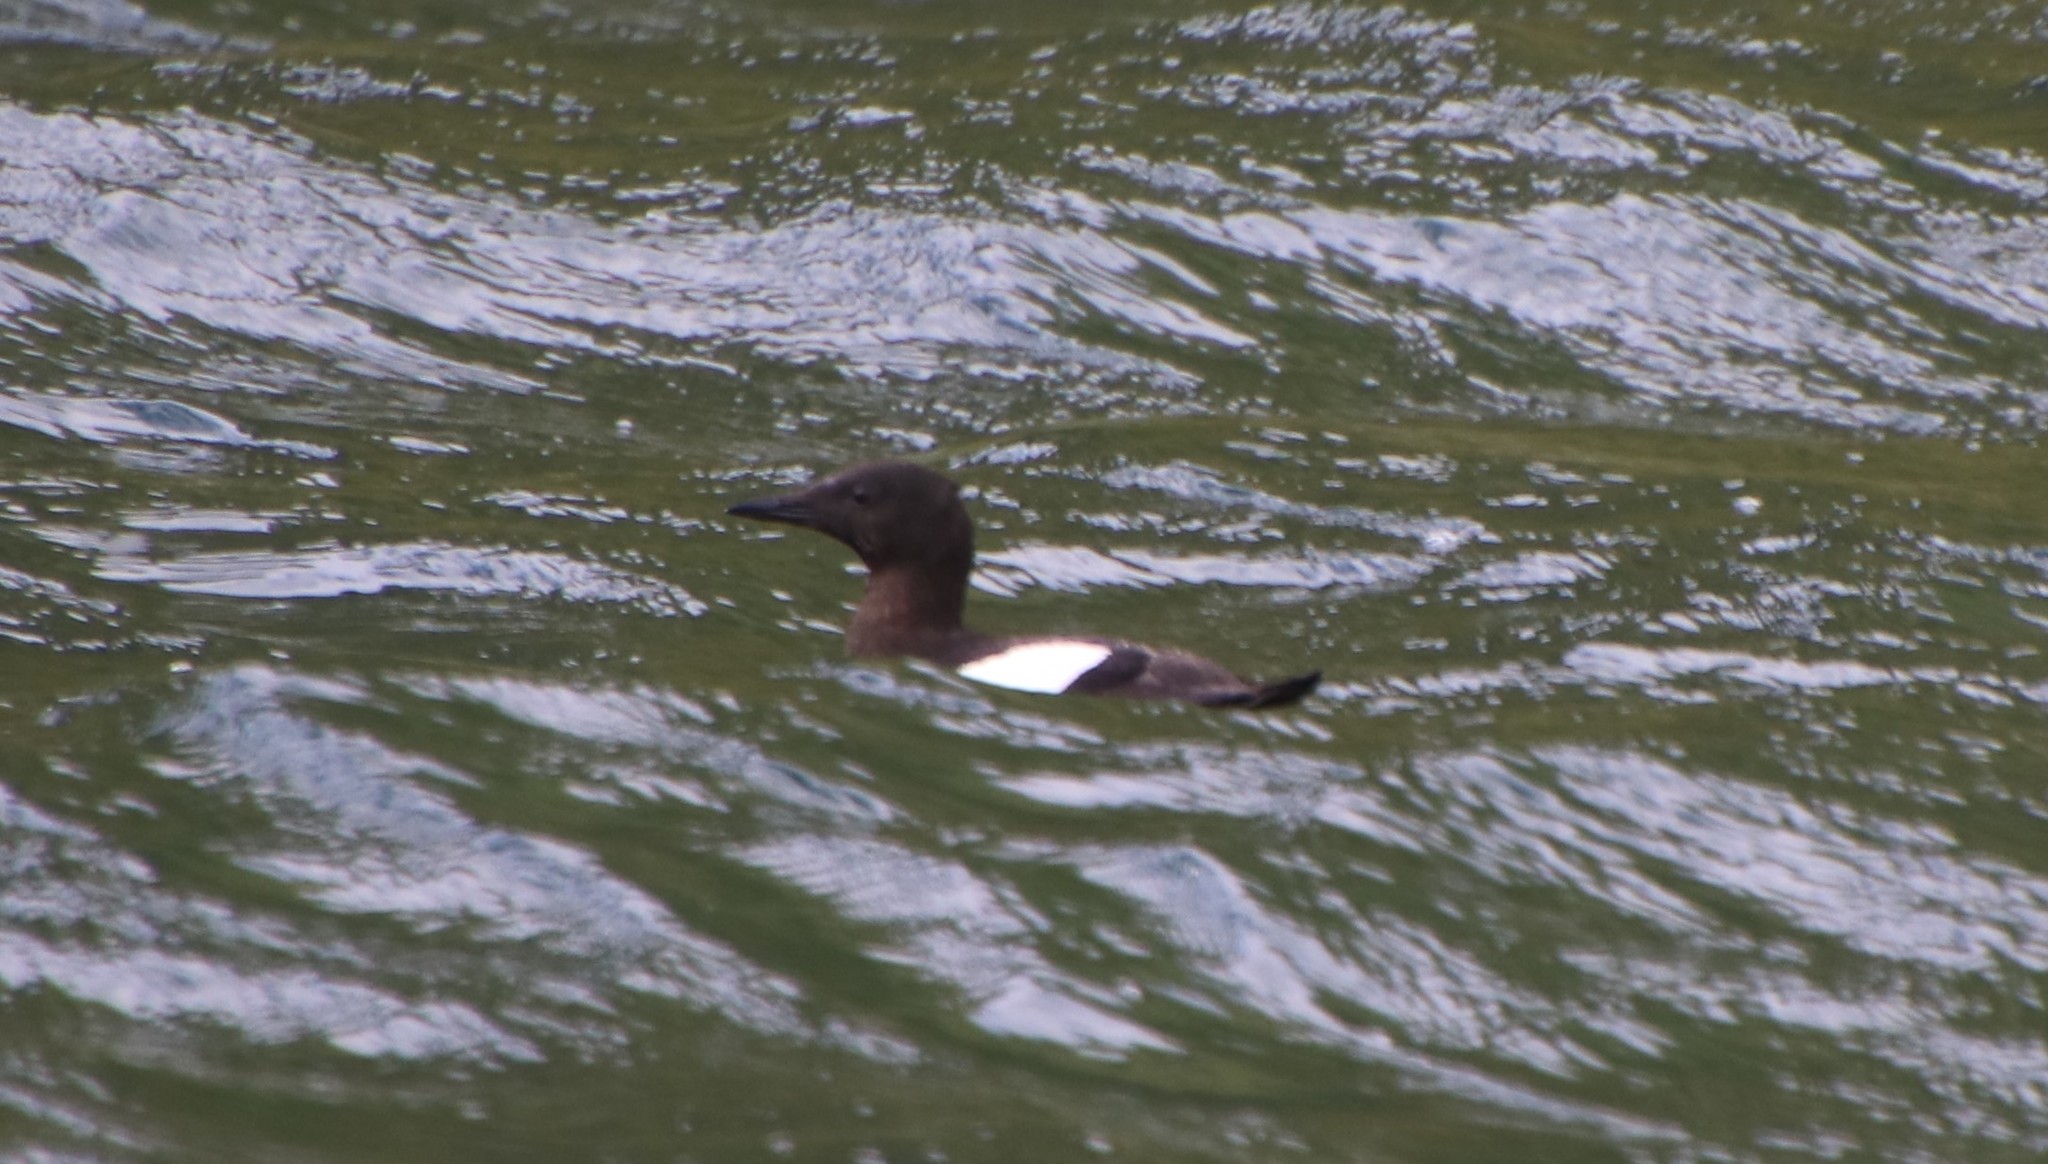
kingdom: Animalia
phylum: Chordata
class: Aves
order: Charadriiformes
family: Alcidae
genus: Cepphus
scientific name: Cepphus grylle
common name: Black guillemot
